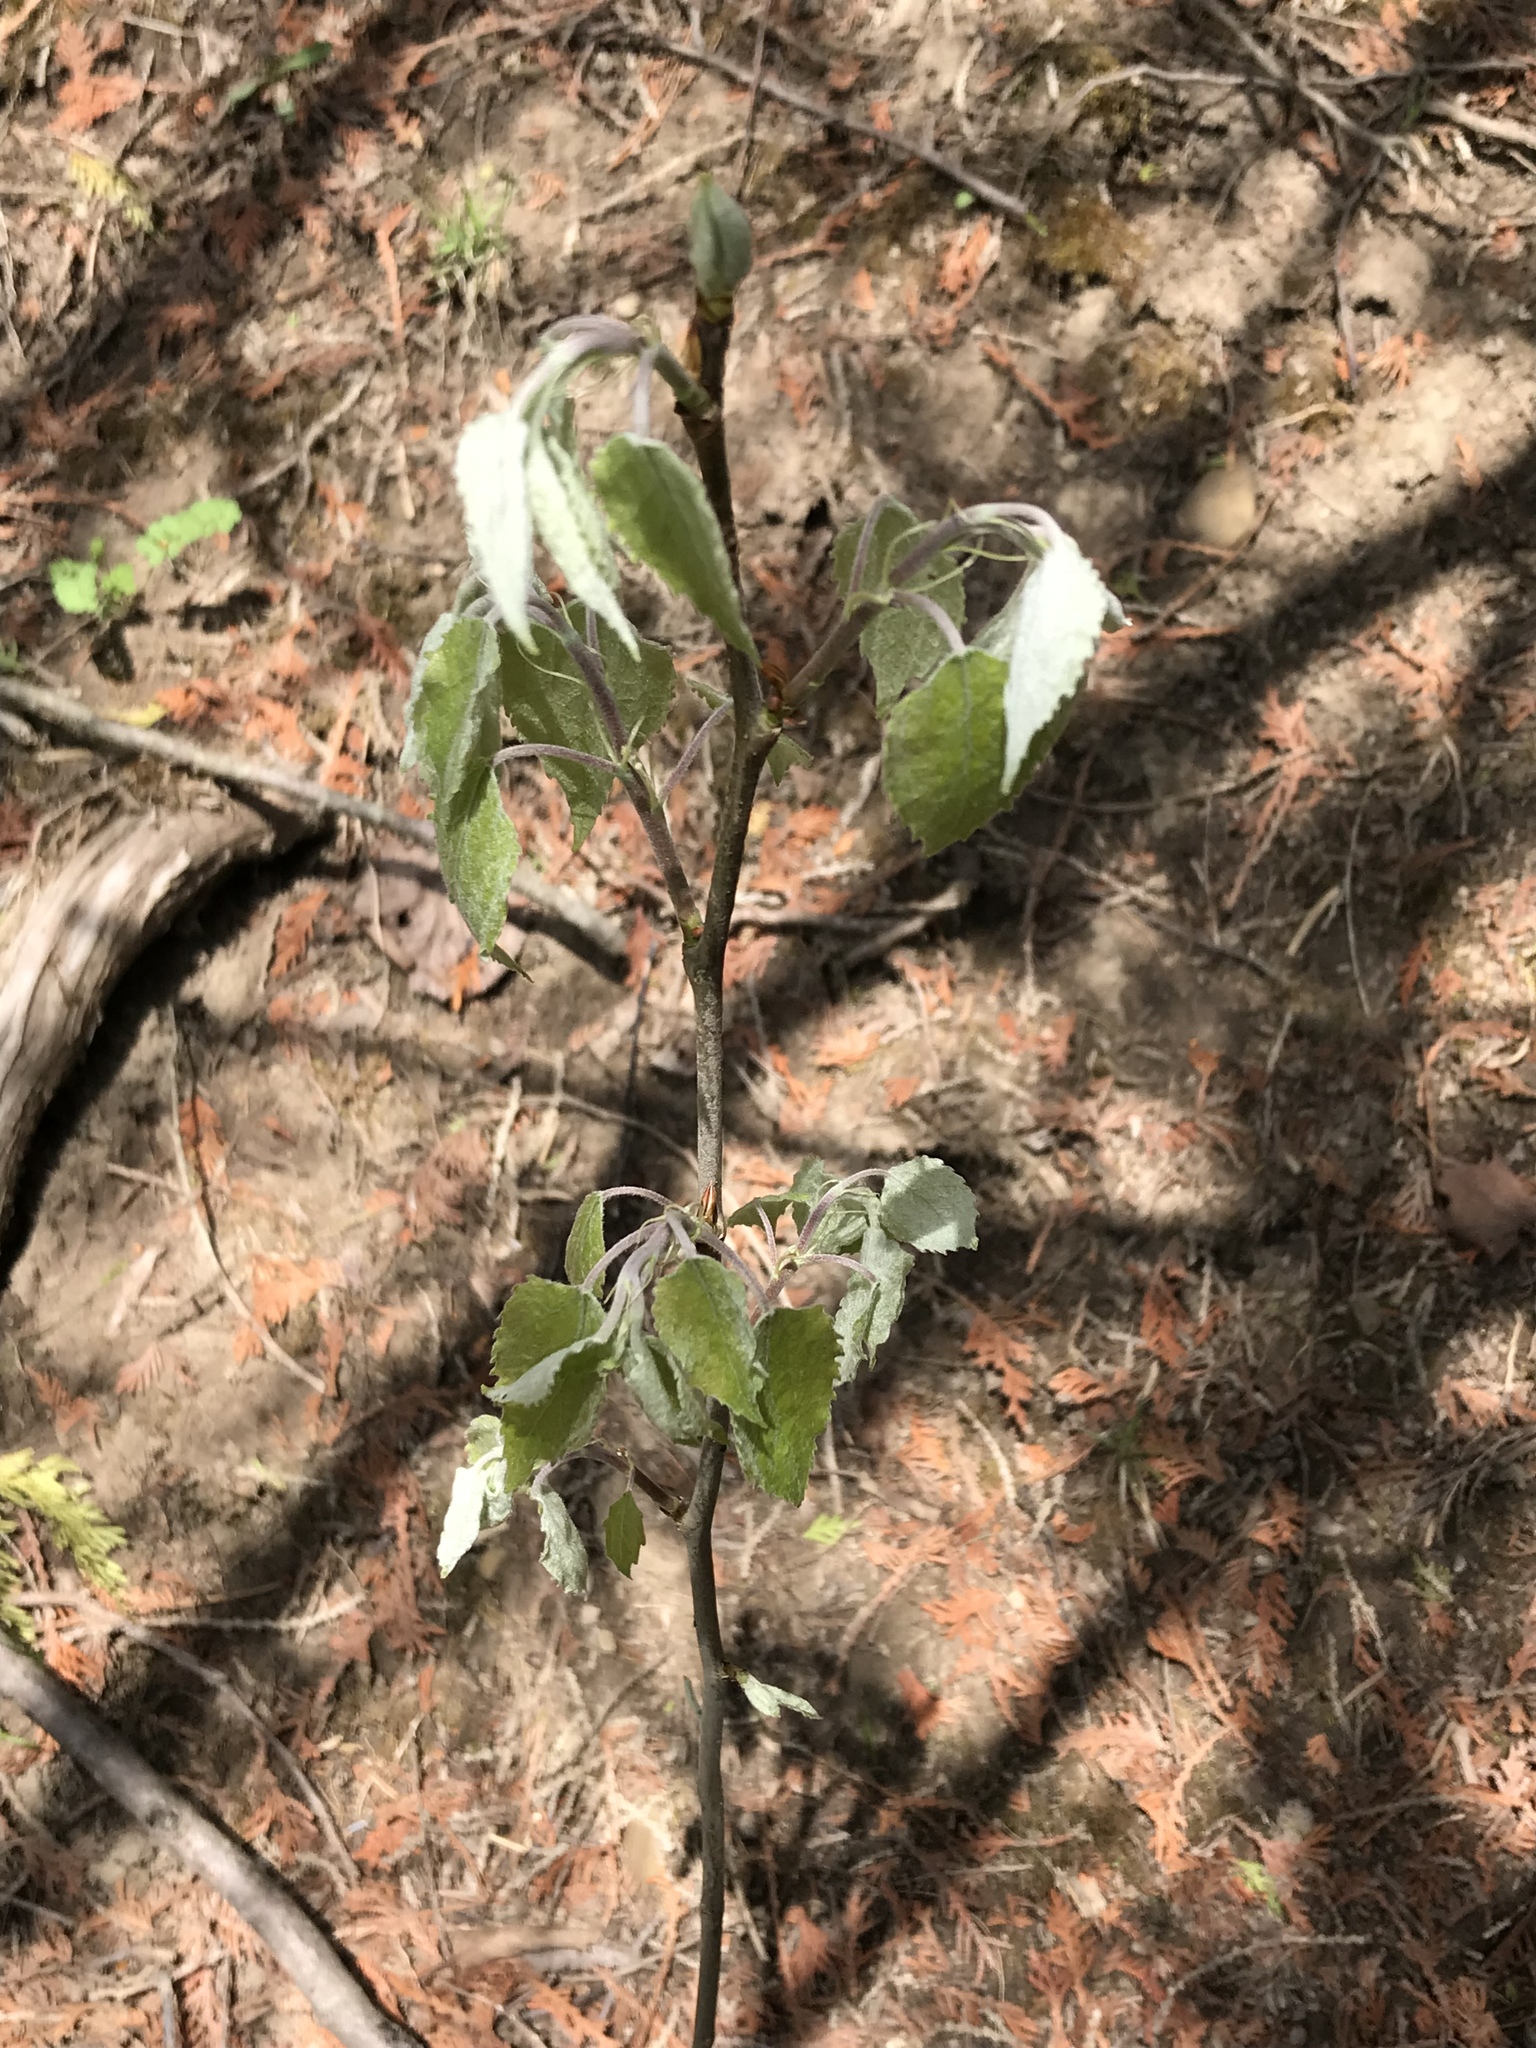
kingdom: Plantae
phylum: Tracheophyta
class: Magnoliopsida
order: Malpighiales
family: Salicaceae
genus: Populus
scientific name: Populus grandidentata
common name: Bigtooth aspen
